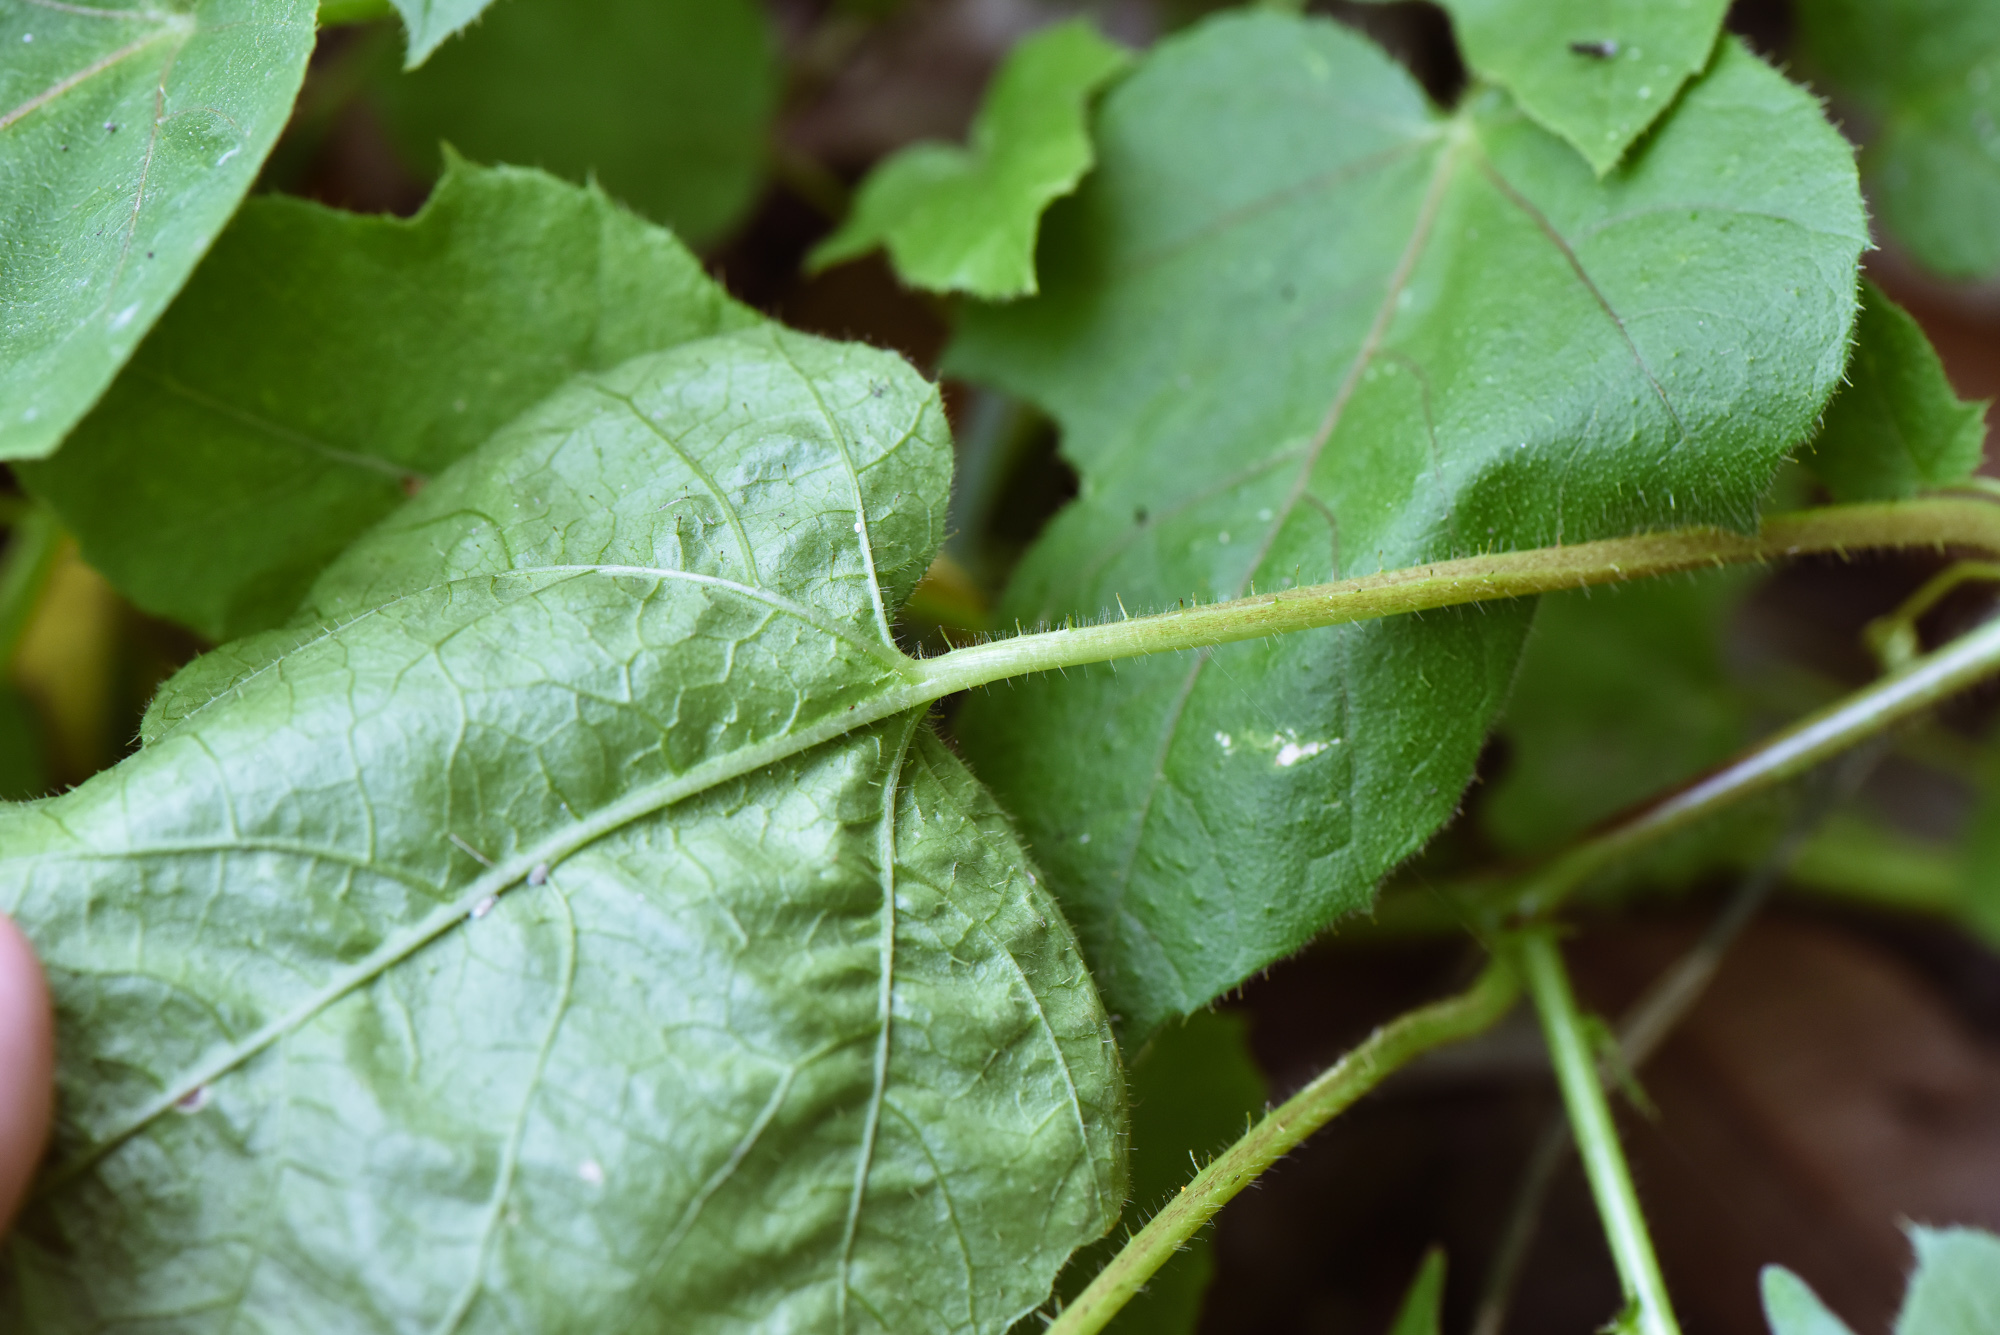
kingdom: Plantae
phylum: Tracheophyta
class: Magnoliopsida
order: Malpighiales
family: Passifloraceae
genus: Passiflora
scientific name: Passiflora vesicaria
